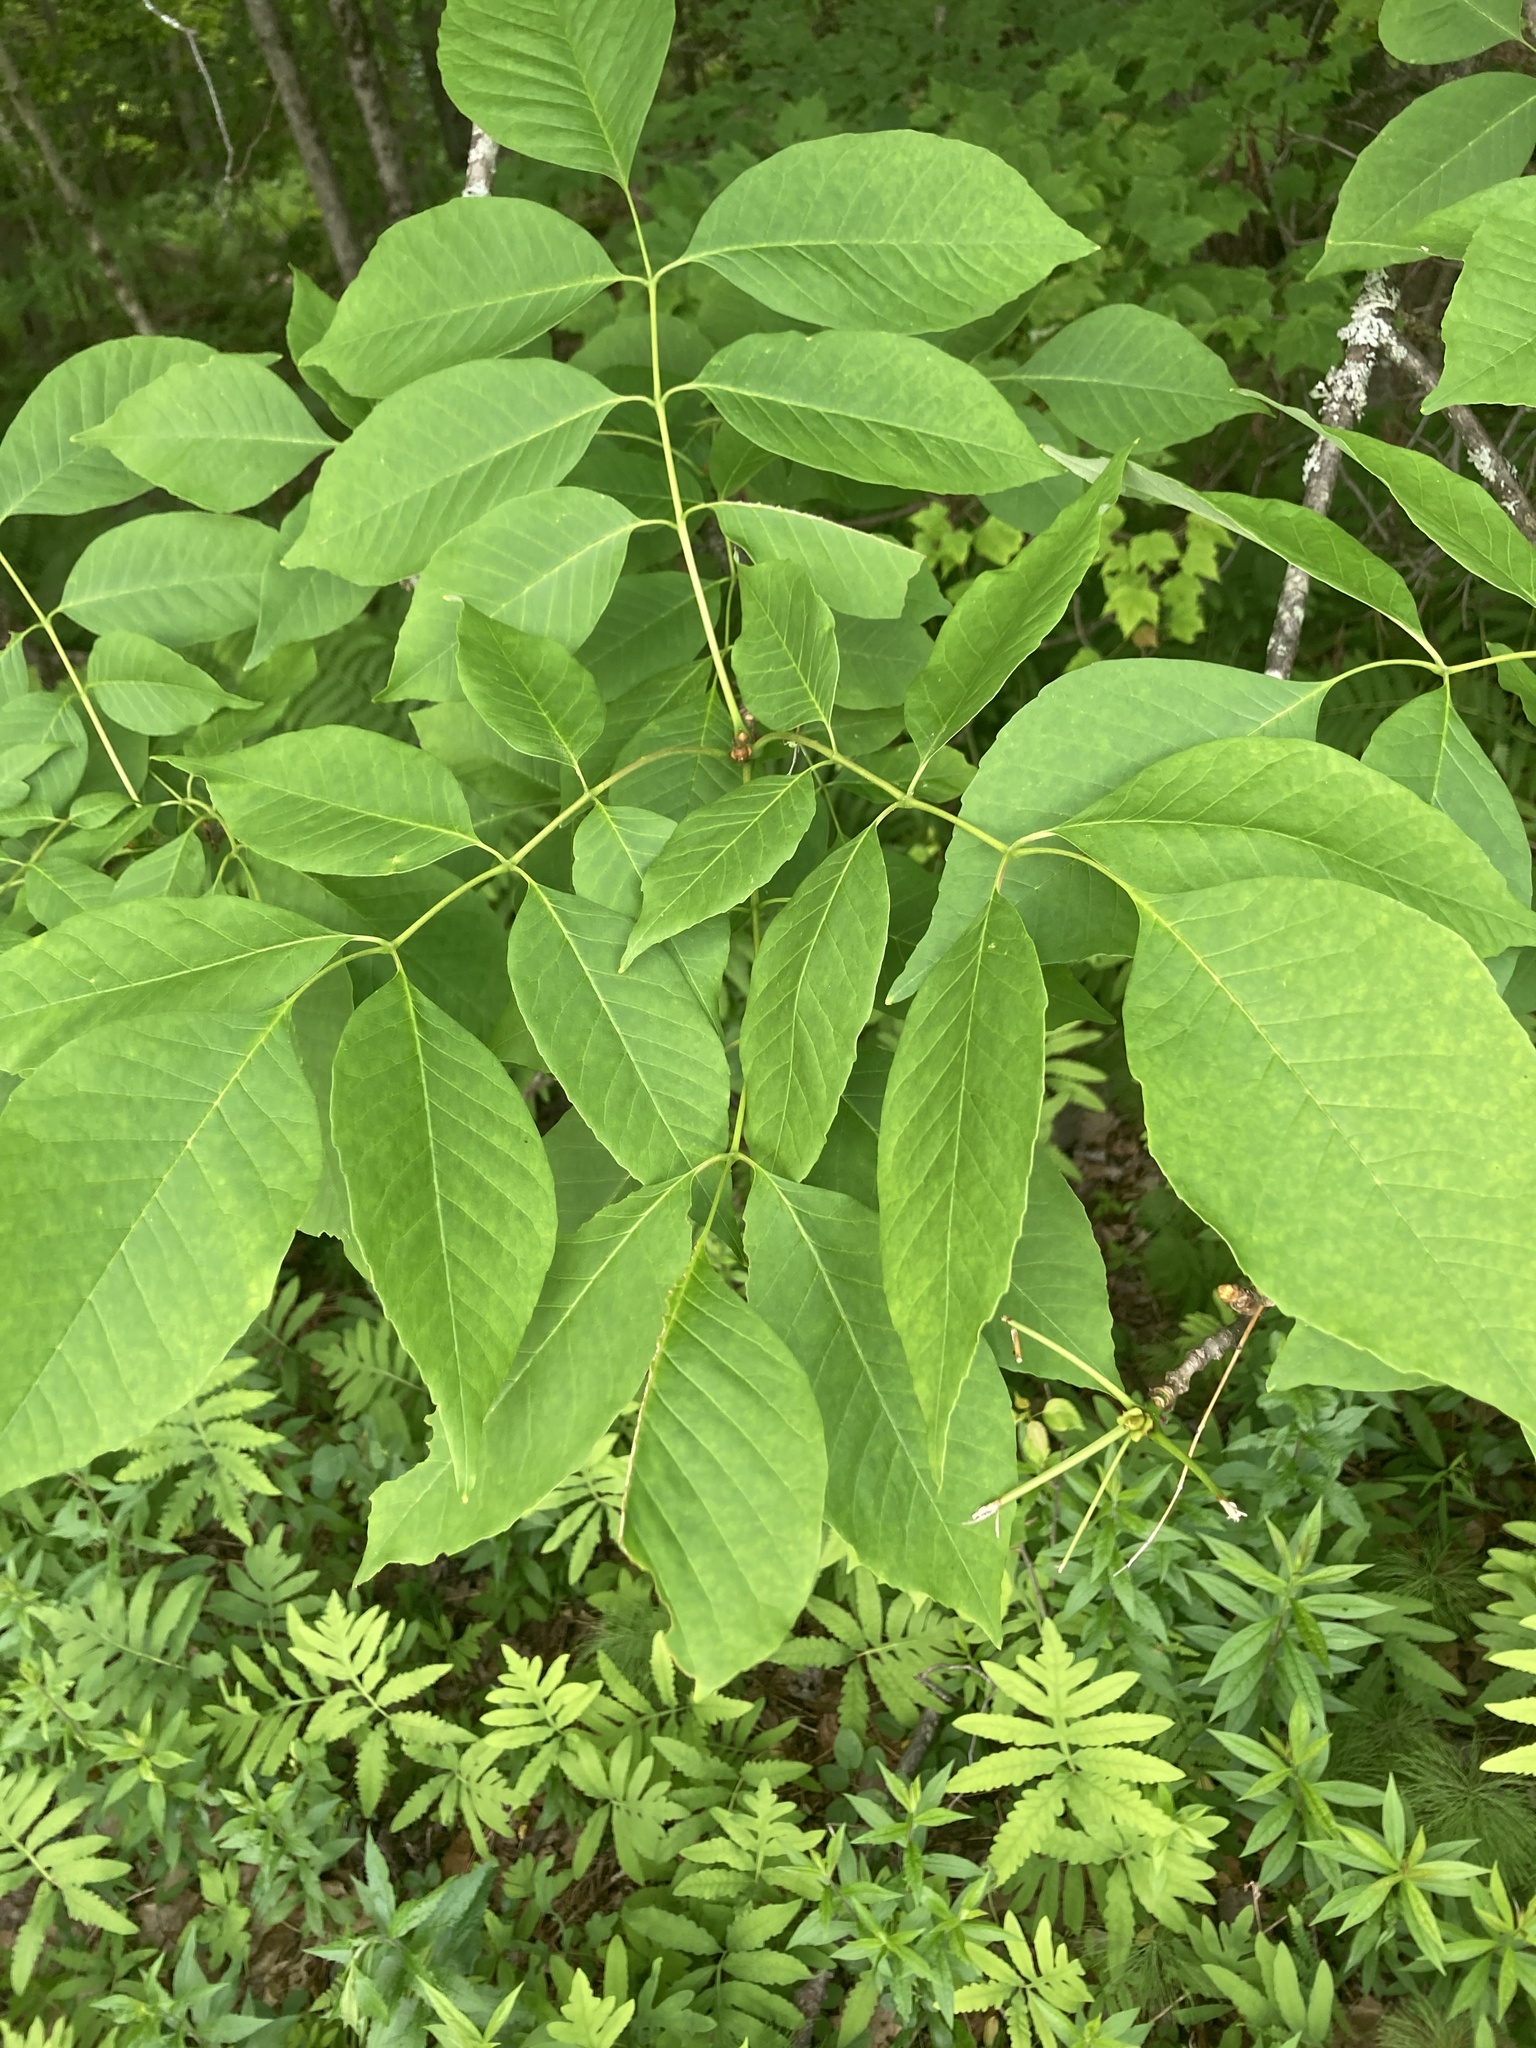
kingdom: Plantae
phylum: Tracheophyta
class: Magnoliopsida
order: Lamiales
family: Oleaceae
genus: Fraxinus
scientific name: Fraxinus americana
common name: White ash
